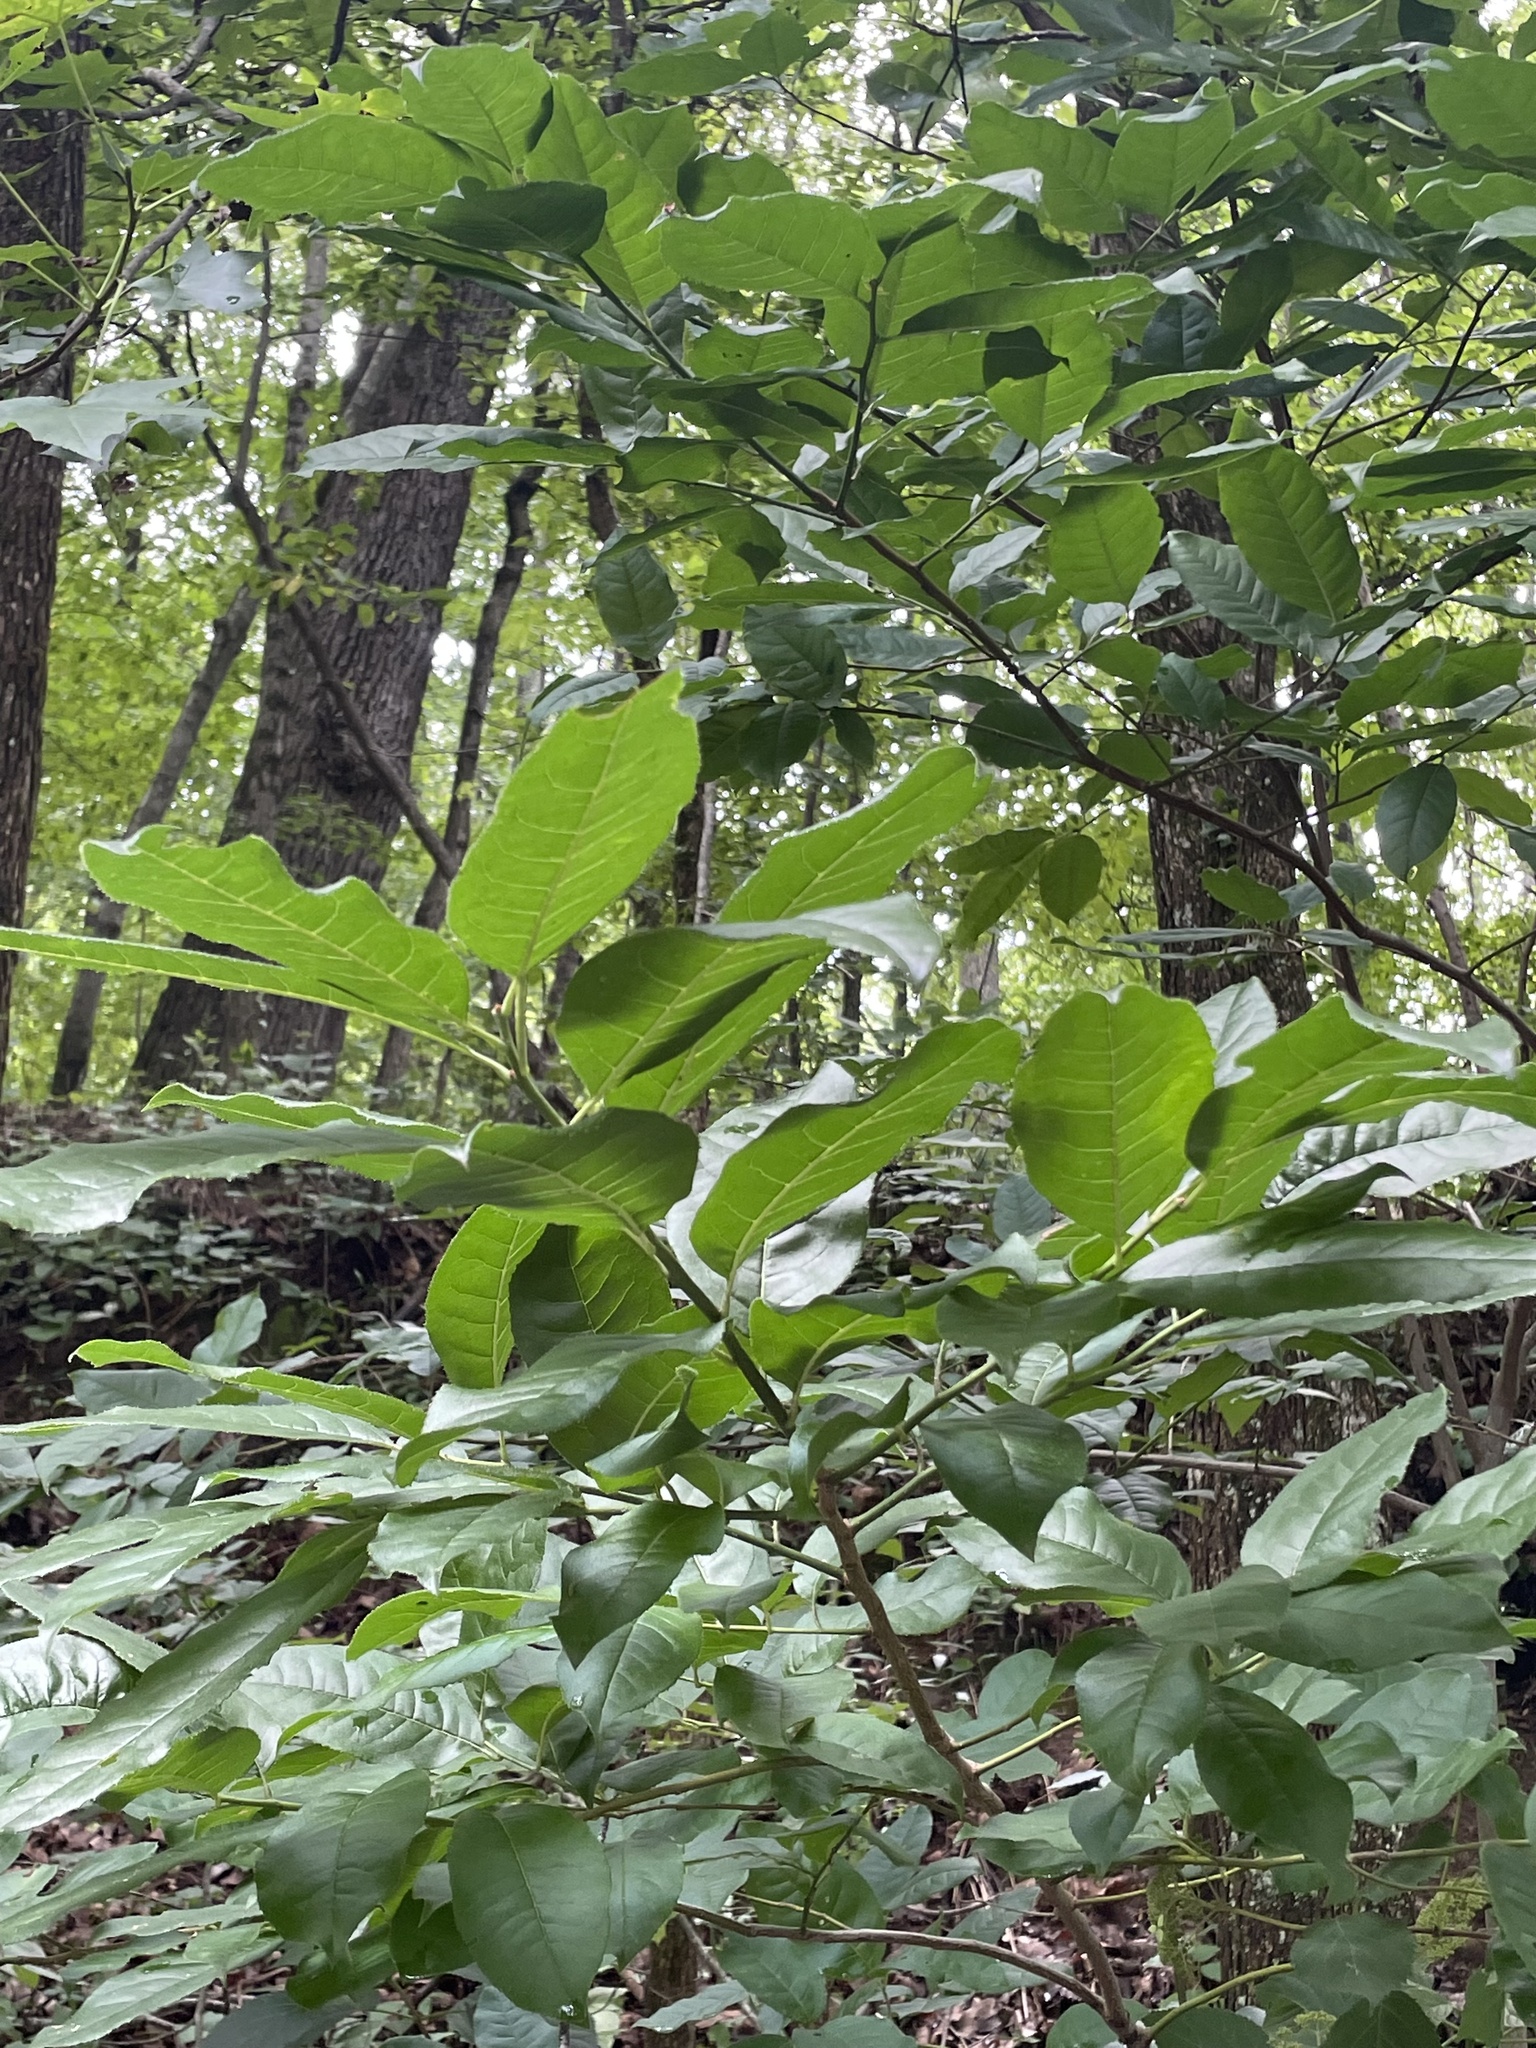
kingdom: Plantae
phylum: Tracheophyta
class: Magnoliopsida
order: Ericales
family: Ericaceae
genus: Oxydendrum
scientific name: Oxydendrum arboreum
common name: Sourwood
